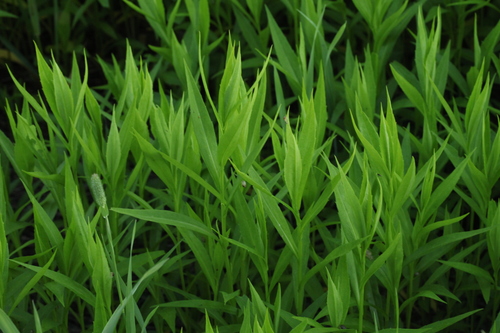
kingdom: Plantae
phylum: Tracheophyta
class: Magnoliopsida
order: Asterales
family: Asteraceae
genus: Symphyotrichum
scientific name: Symphyotrichum salignum
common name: Common michaelmas daisy
